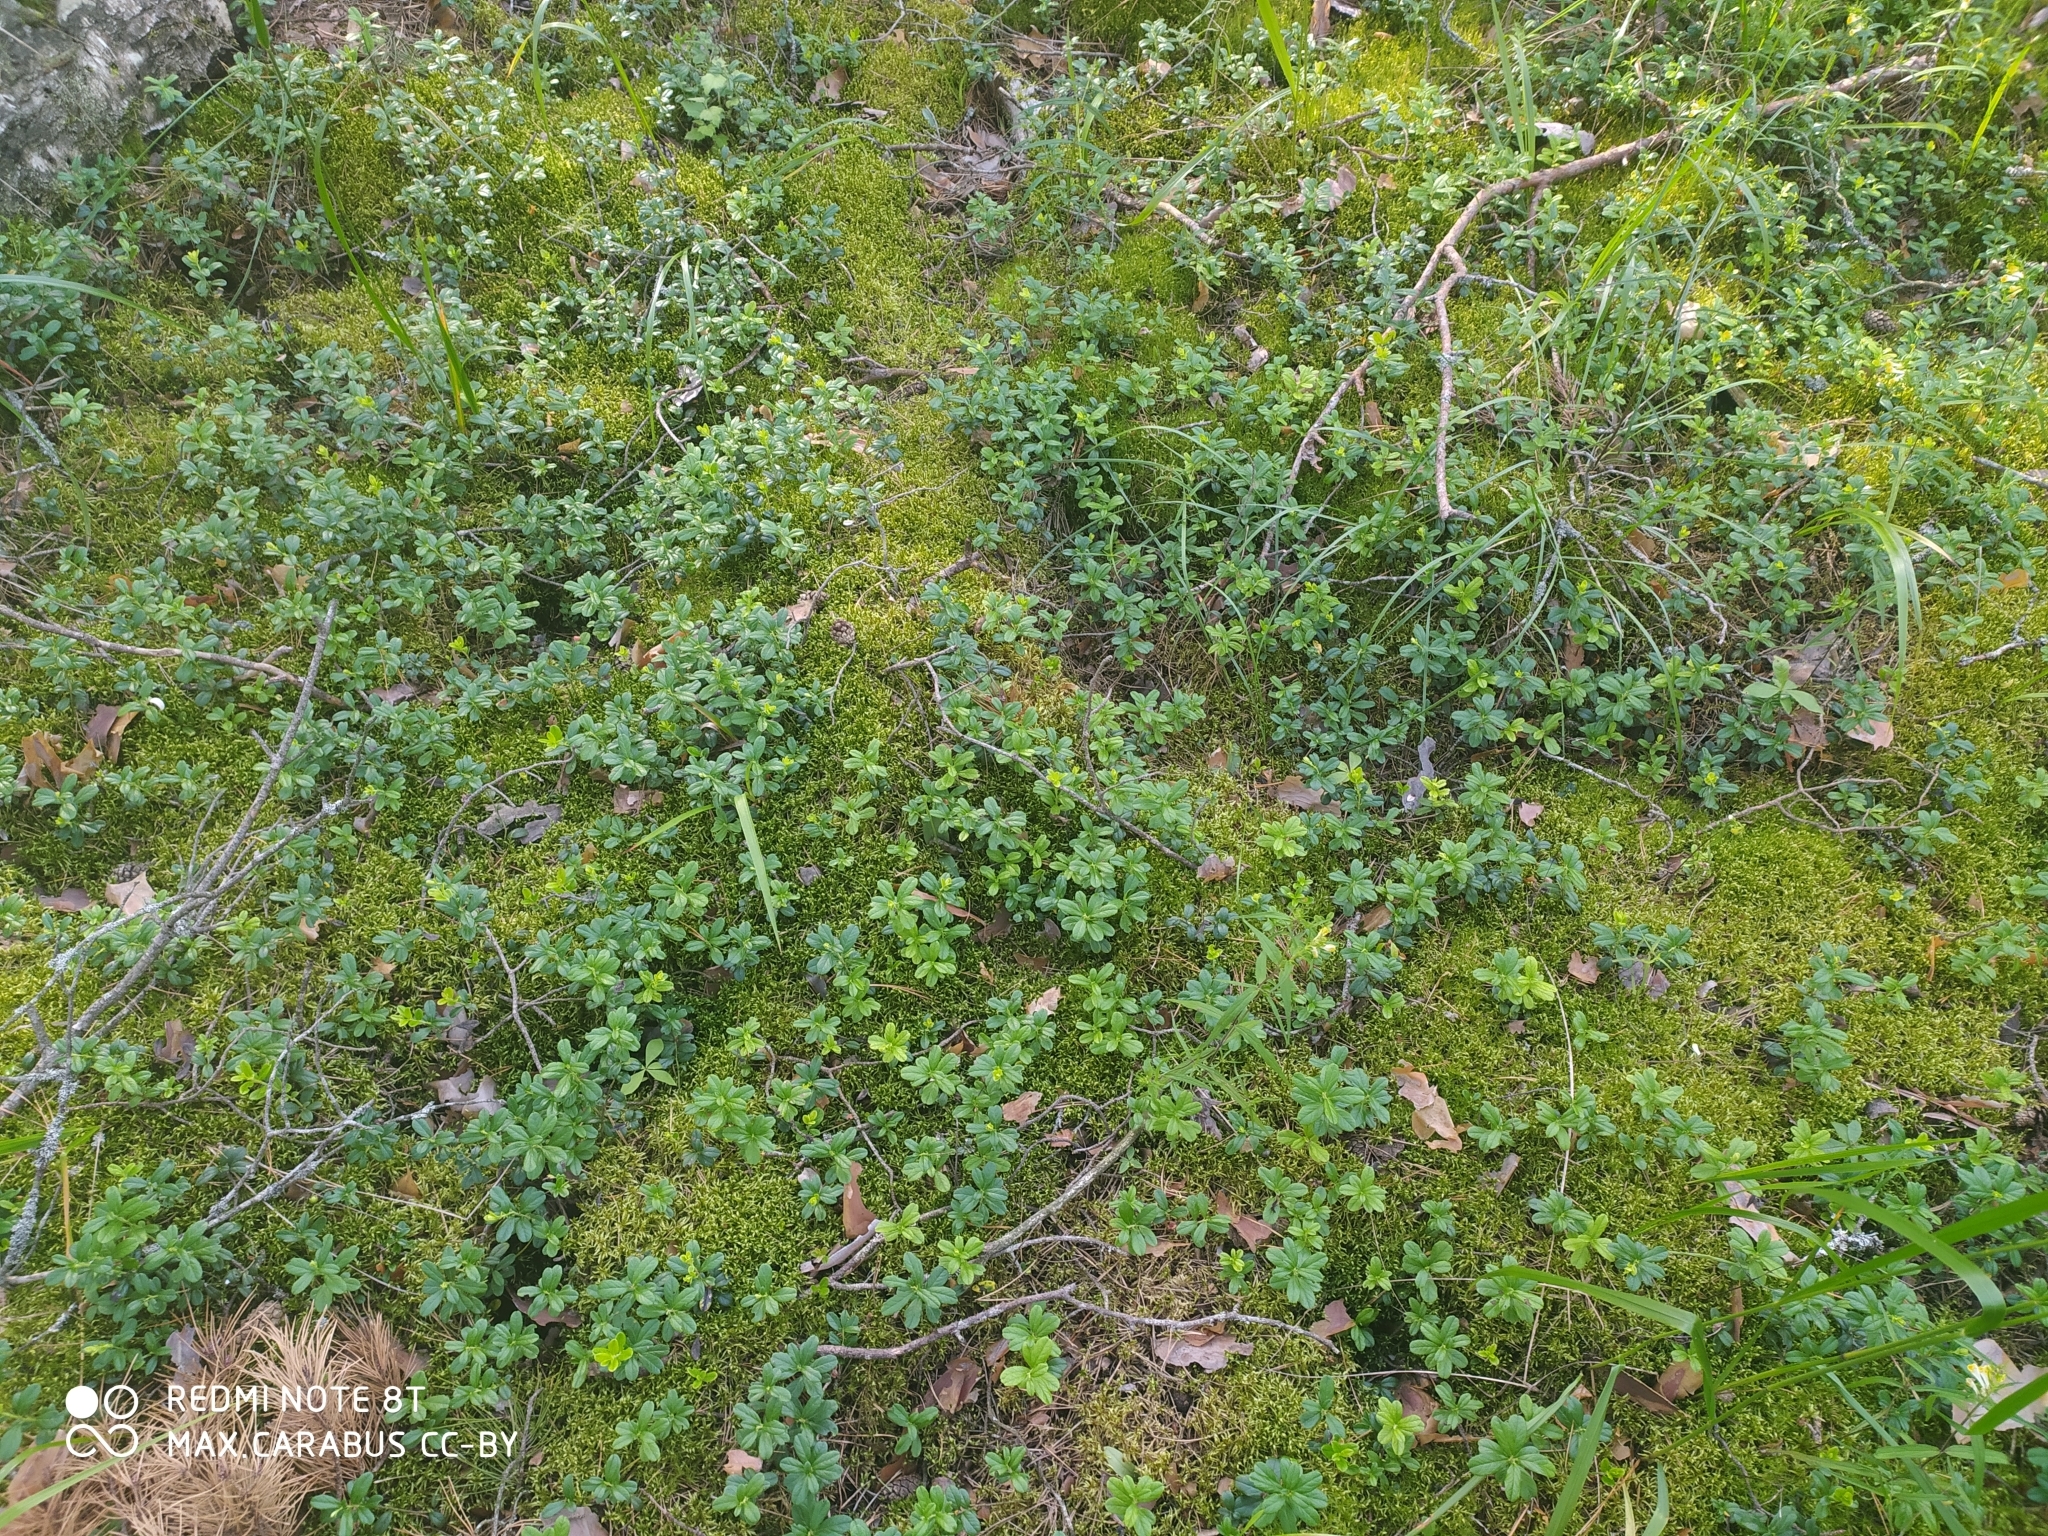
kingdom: Plantae
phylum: Tracheophyta
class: Magnoliopsida
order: Ericales
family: Ericaceae
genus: Vaccinium
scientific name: Vaccinium vitis-idaea
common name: Cowberry
